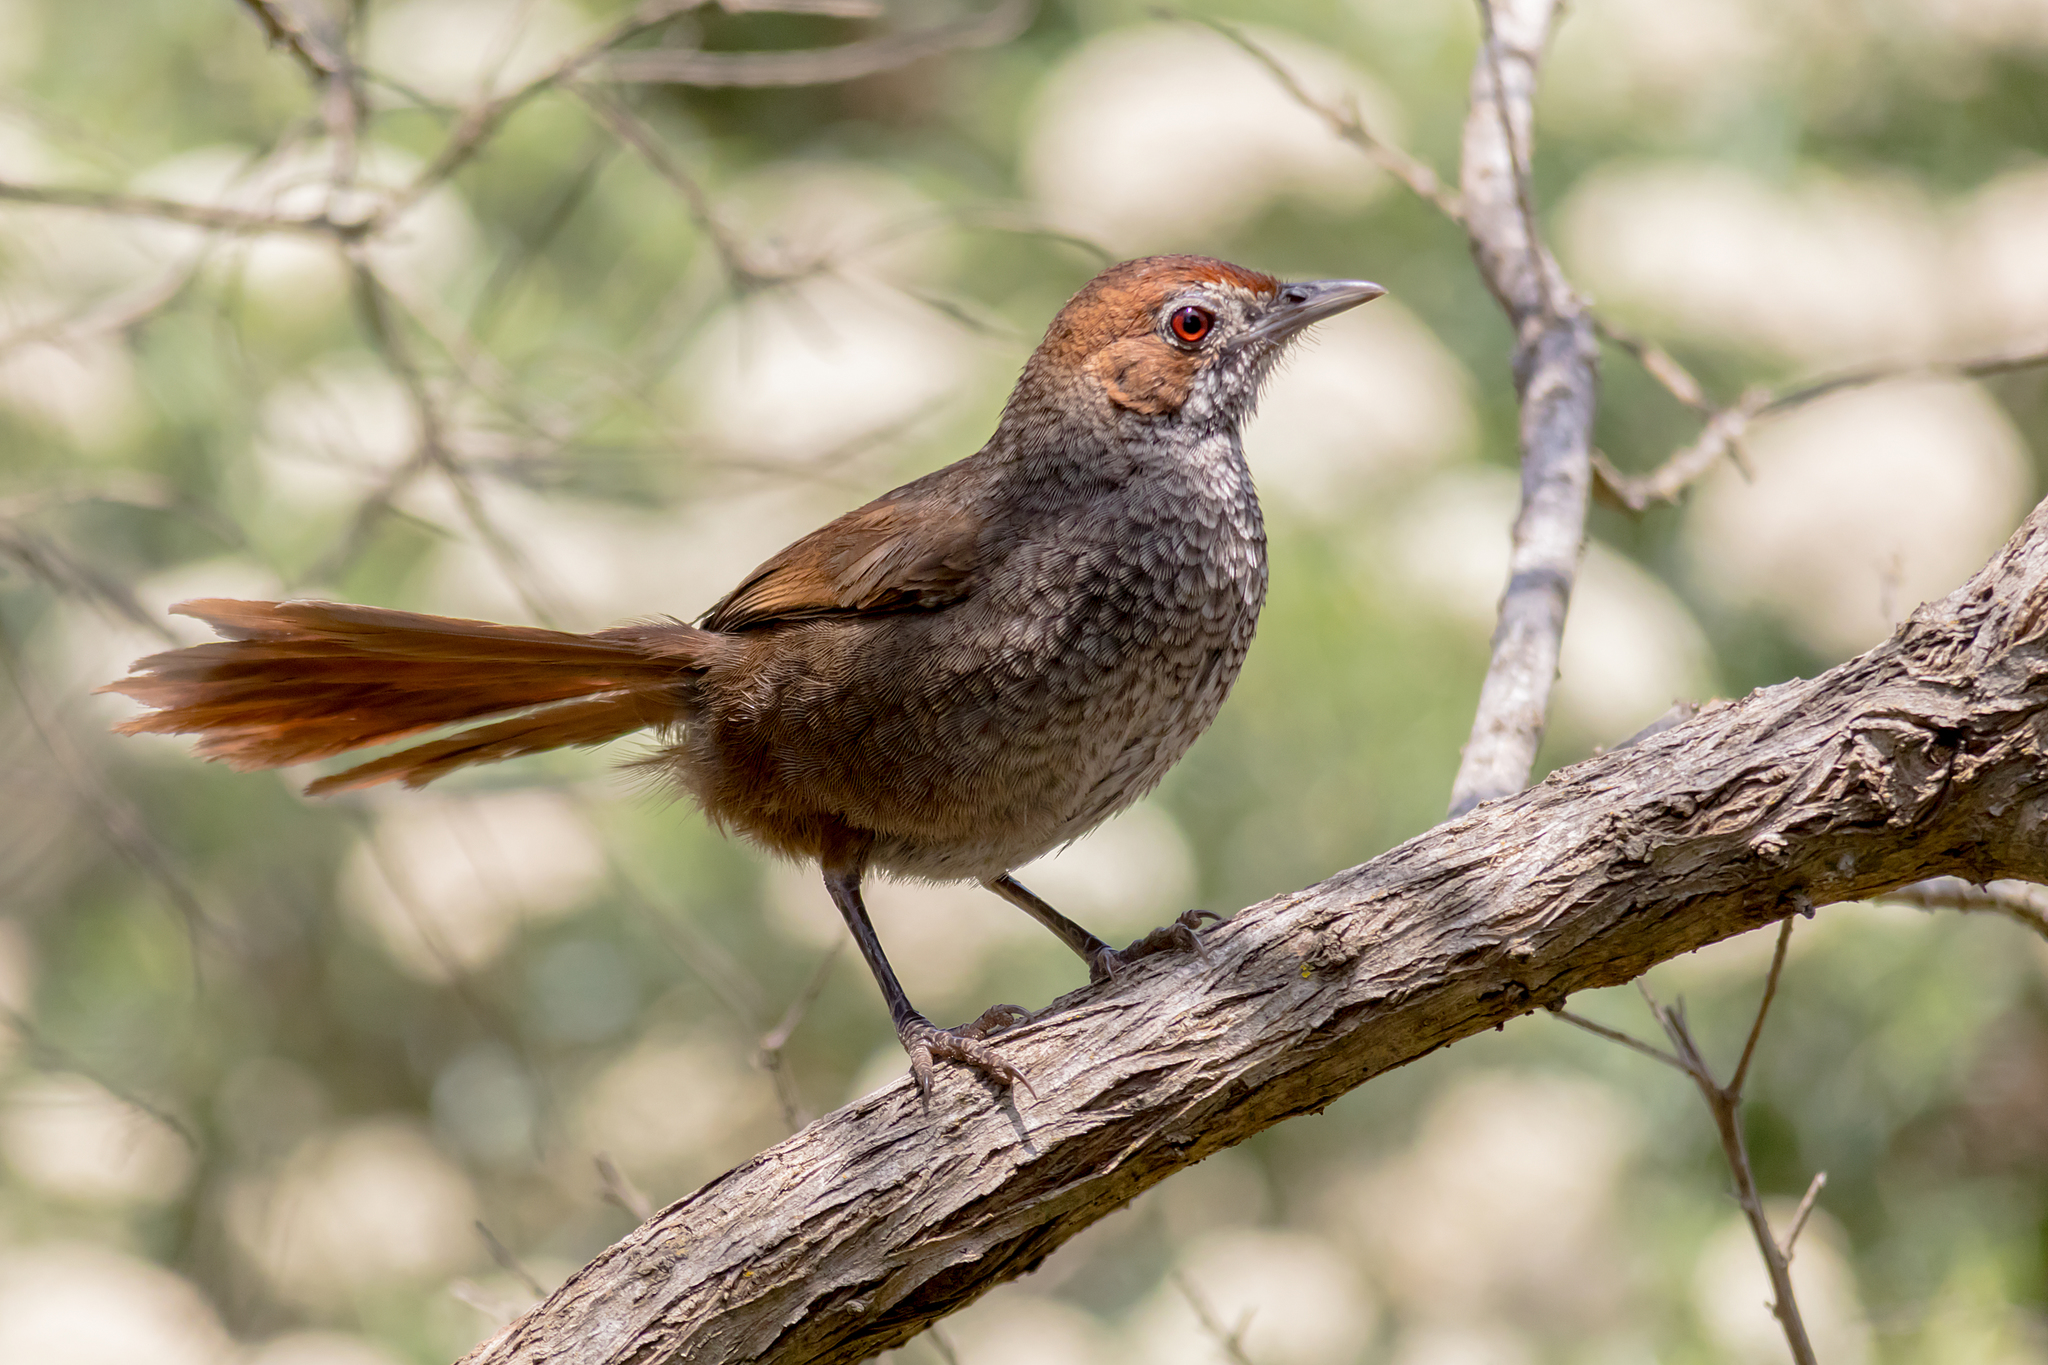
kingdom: Animalia
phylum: Chordata
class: Aves
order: Passeriformes
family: Dasyornithidae
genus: Dasyornis
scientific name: Dasyornis broadbenti
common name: Rufous bristlebird
